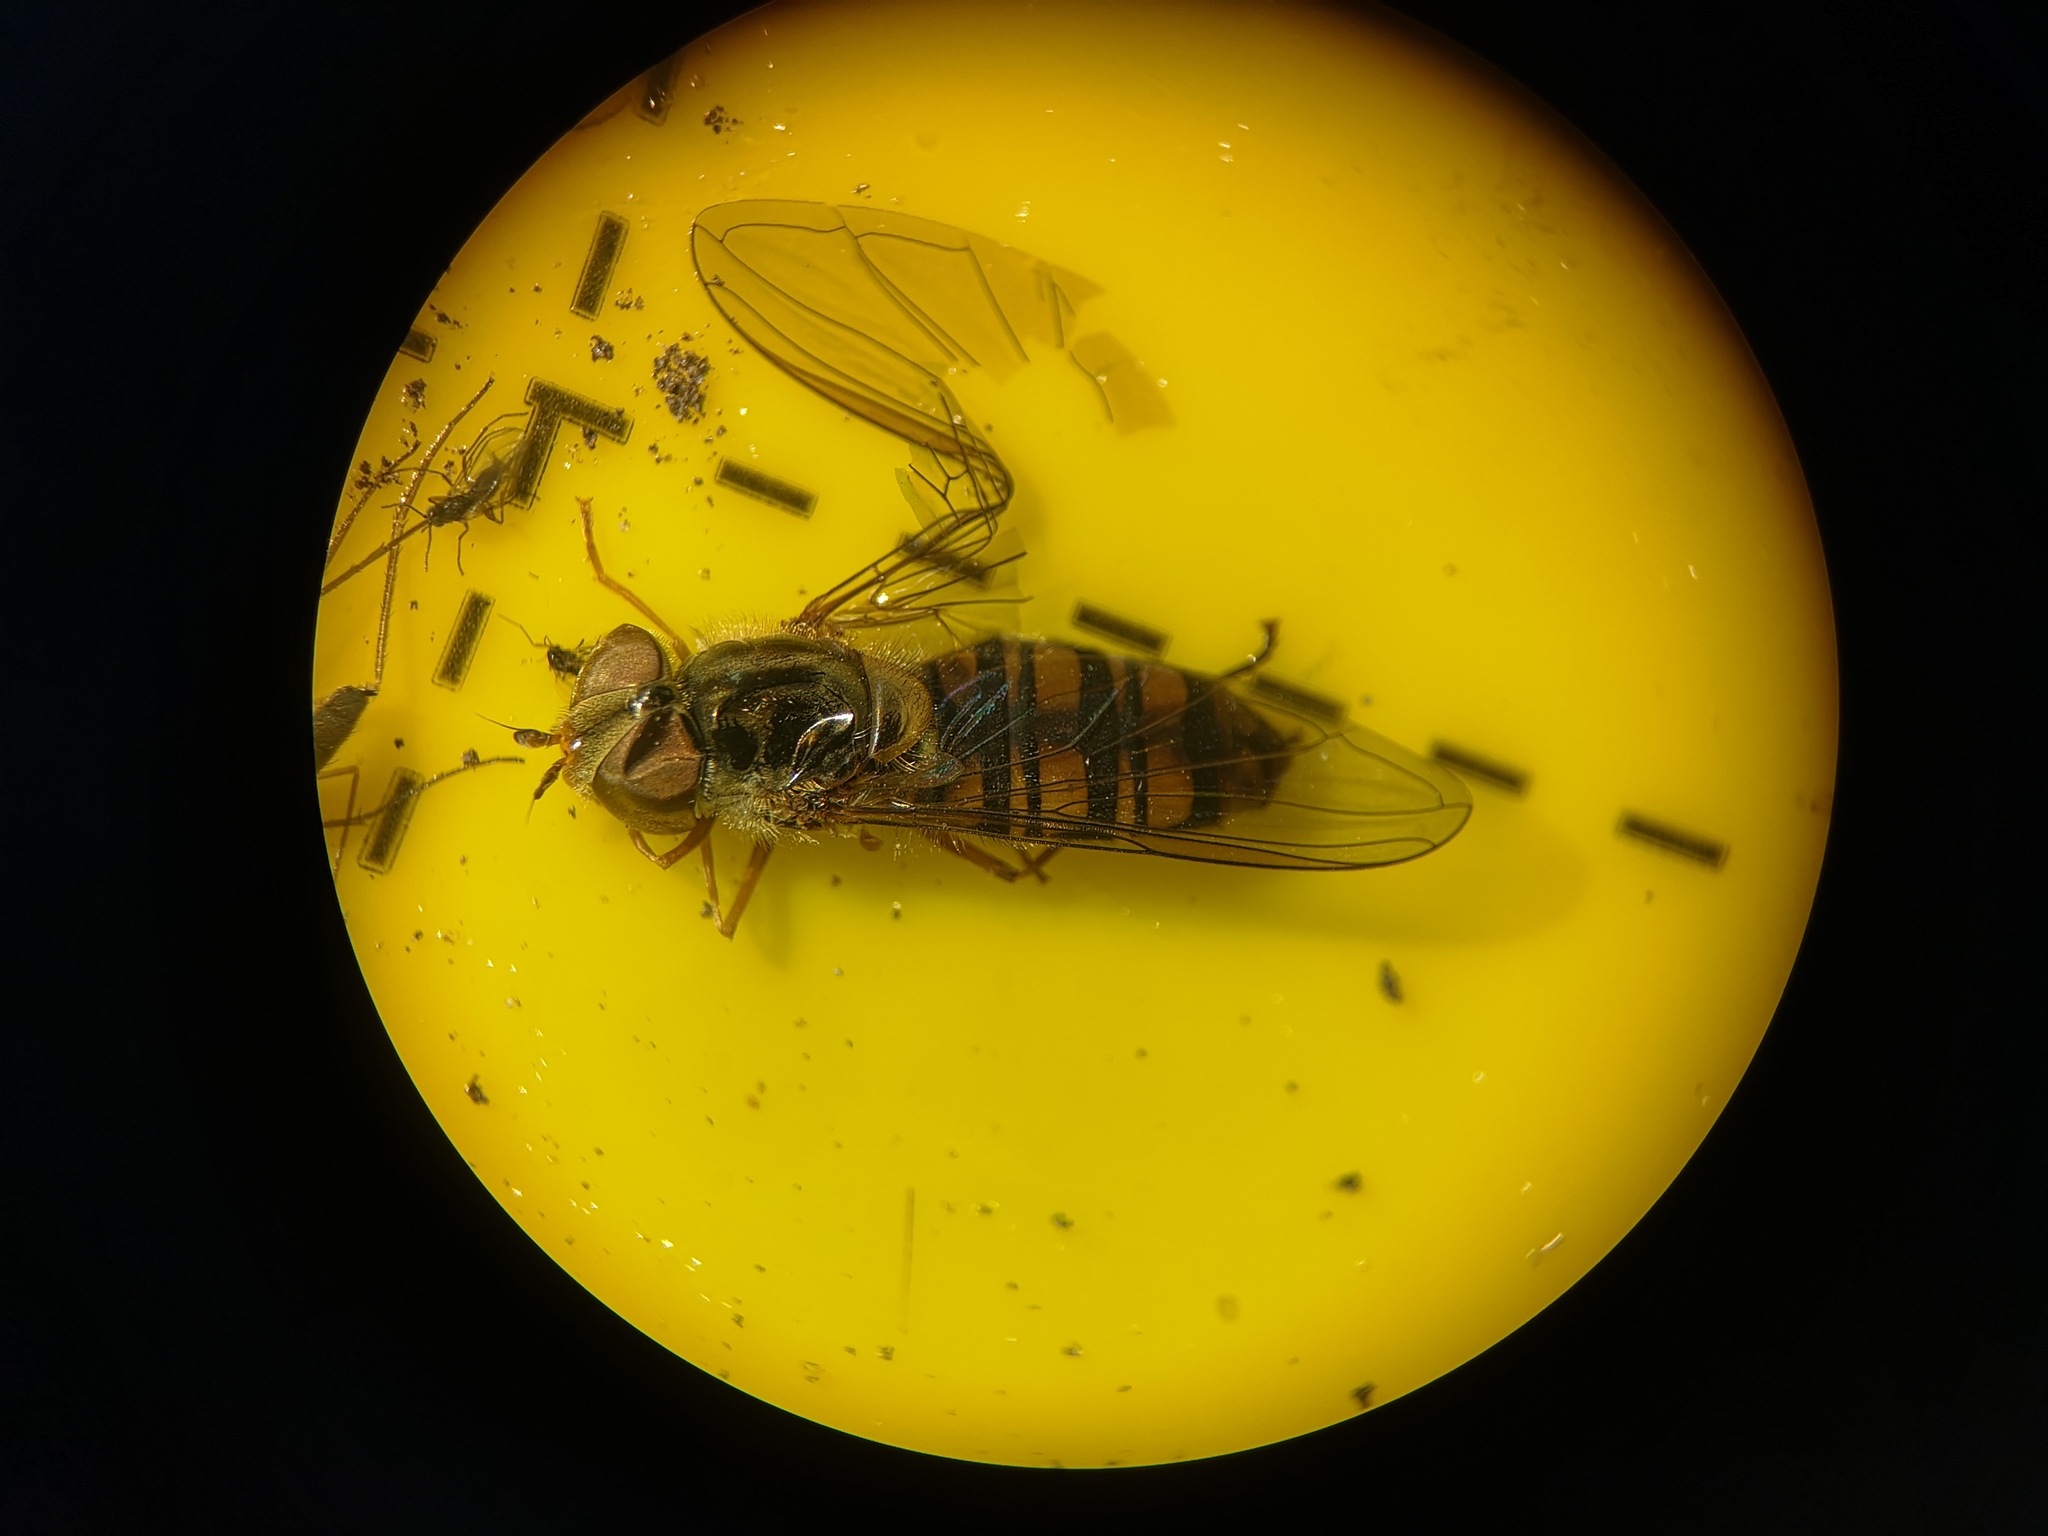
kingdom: Animalia
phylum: Arthropoda
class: Insecta
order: Diptera
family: Syrphidae
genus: Episyrphus
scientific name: Episyrphus balteatus
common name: Marmalade hoverfly
